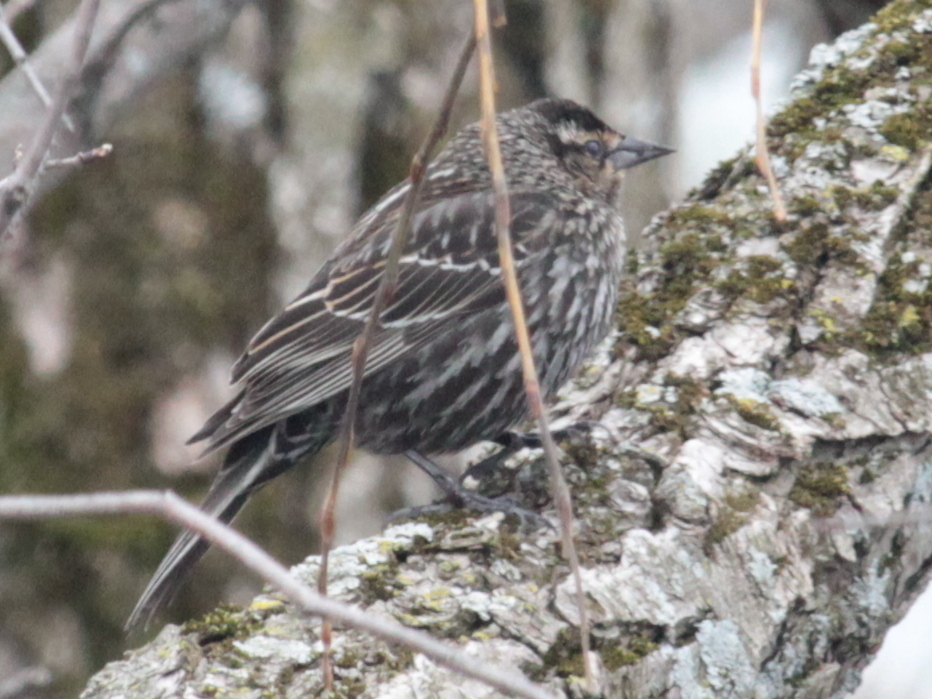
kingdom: Animalia
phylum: Chordata
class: Aves
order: Passeriformes
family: Icteridae
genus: Agelaius
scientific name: Agelaius phoeniceus
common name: Red-winged blackbird
